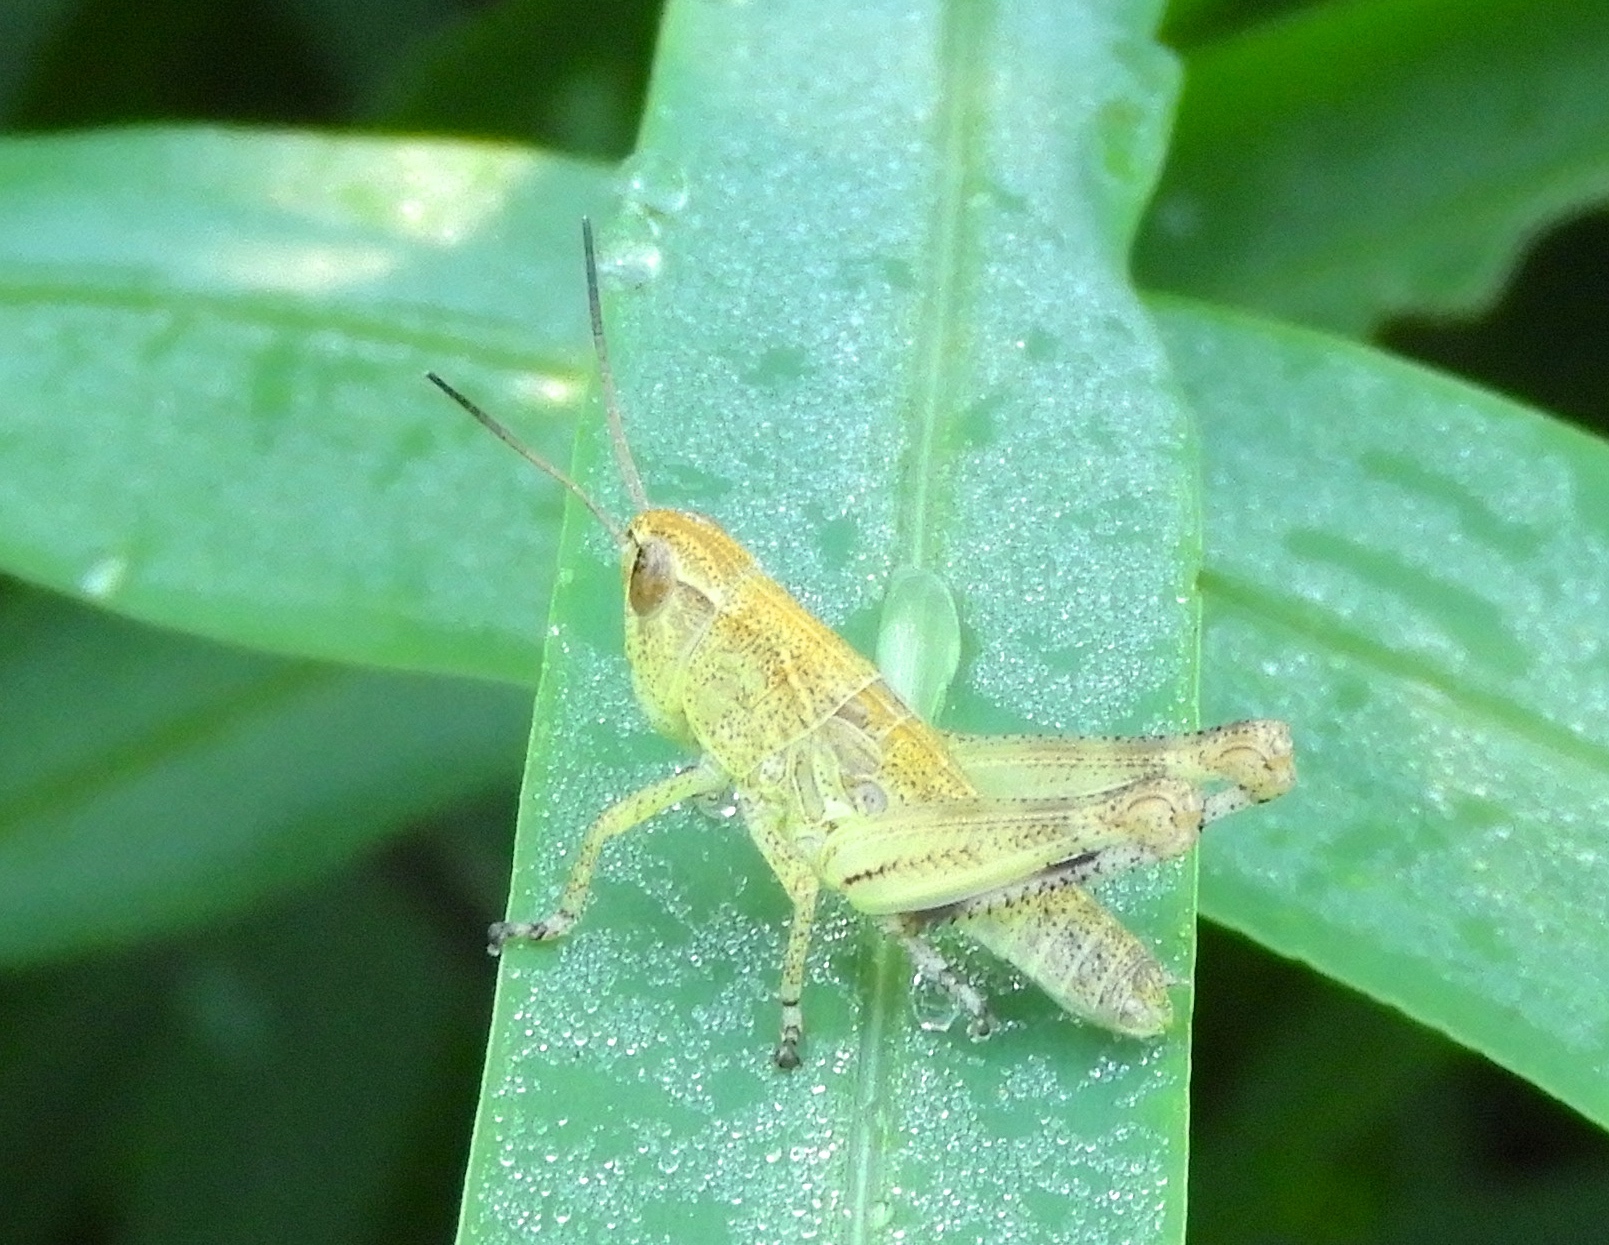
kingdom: Animalia
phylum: Arthropoda
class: Insecta
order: Orthoptera
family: Acrididae
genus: Boopedon
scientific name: Boopedon flaviventris
